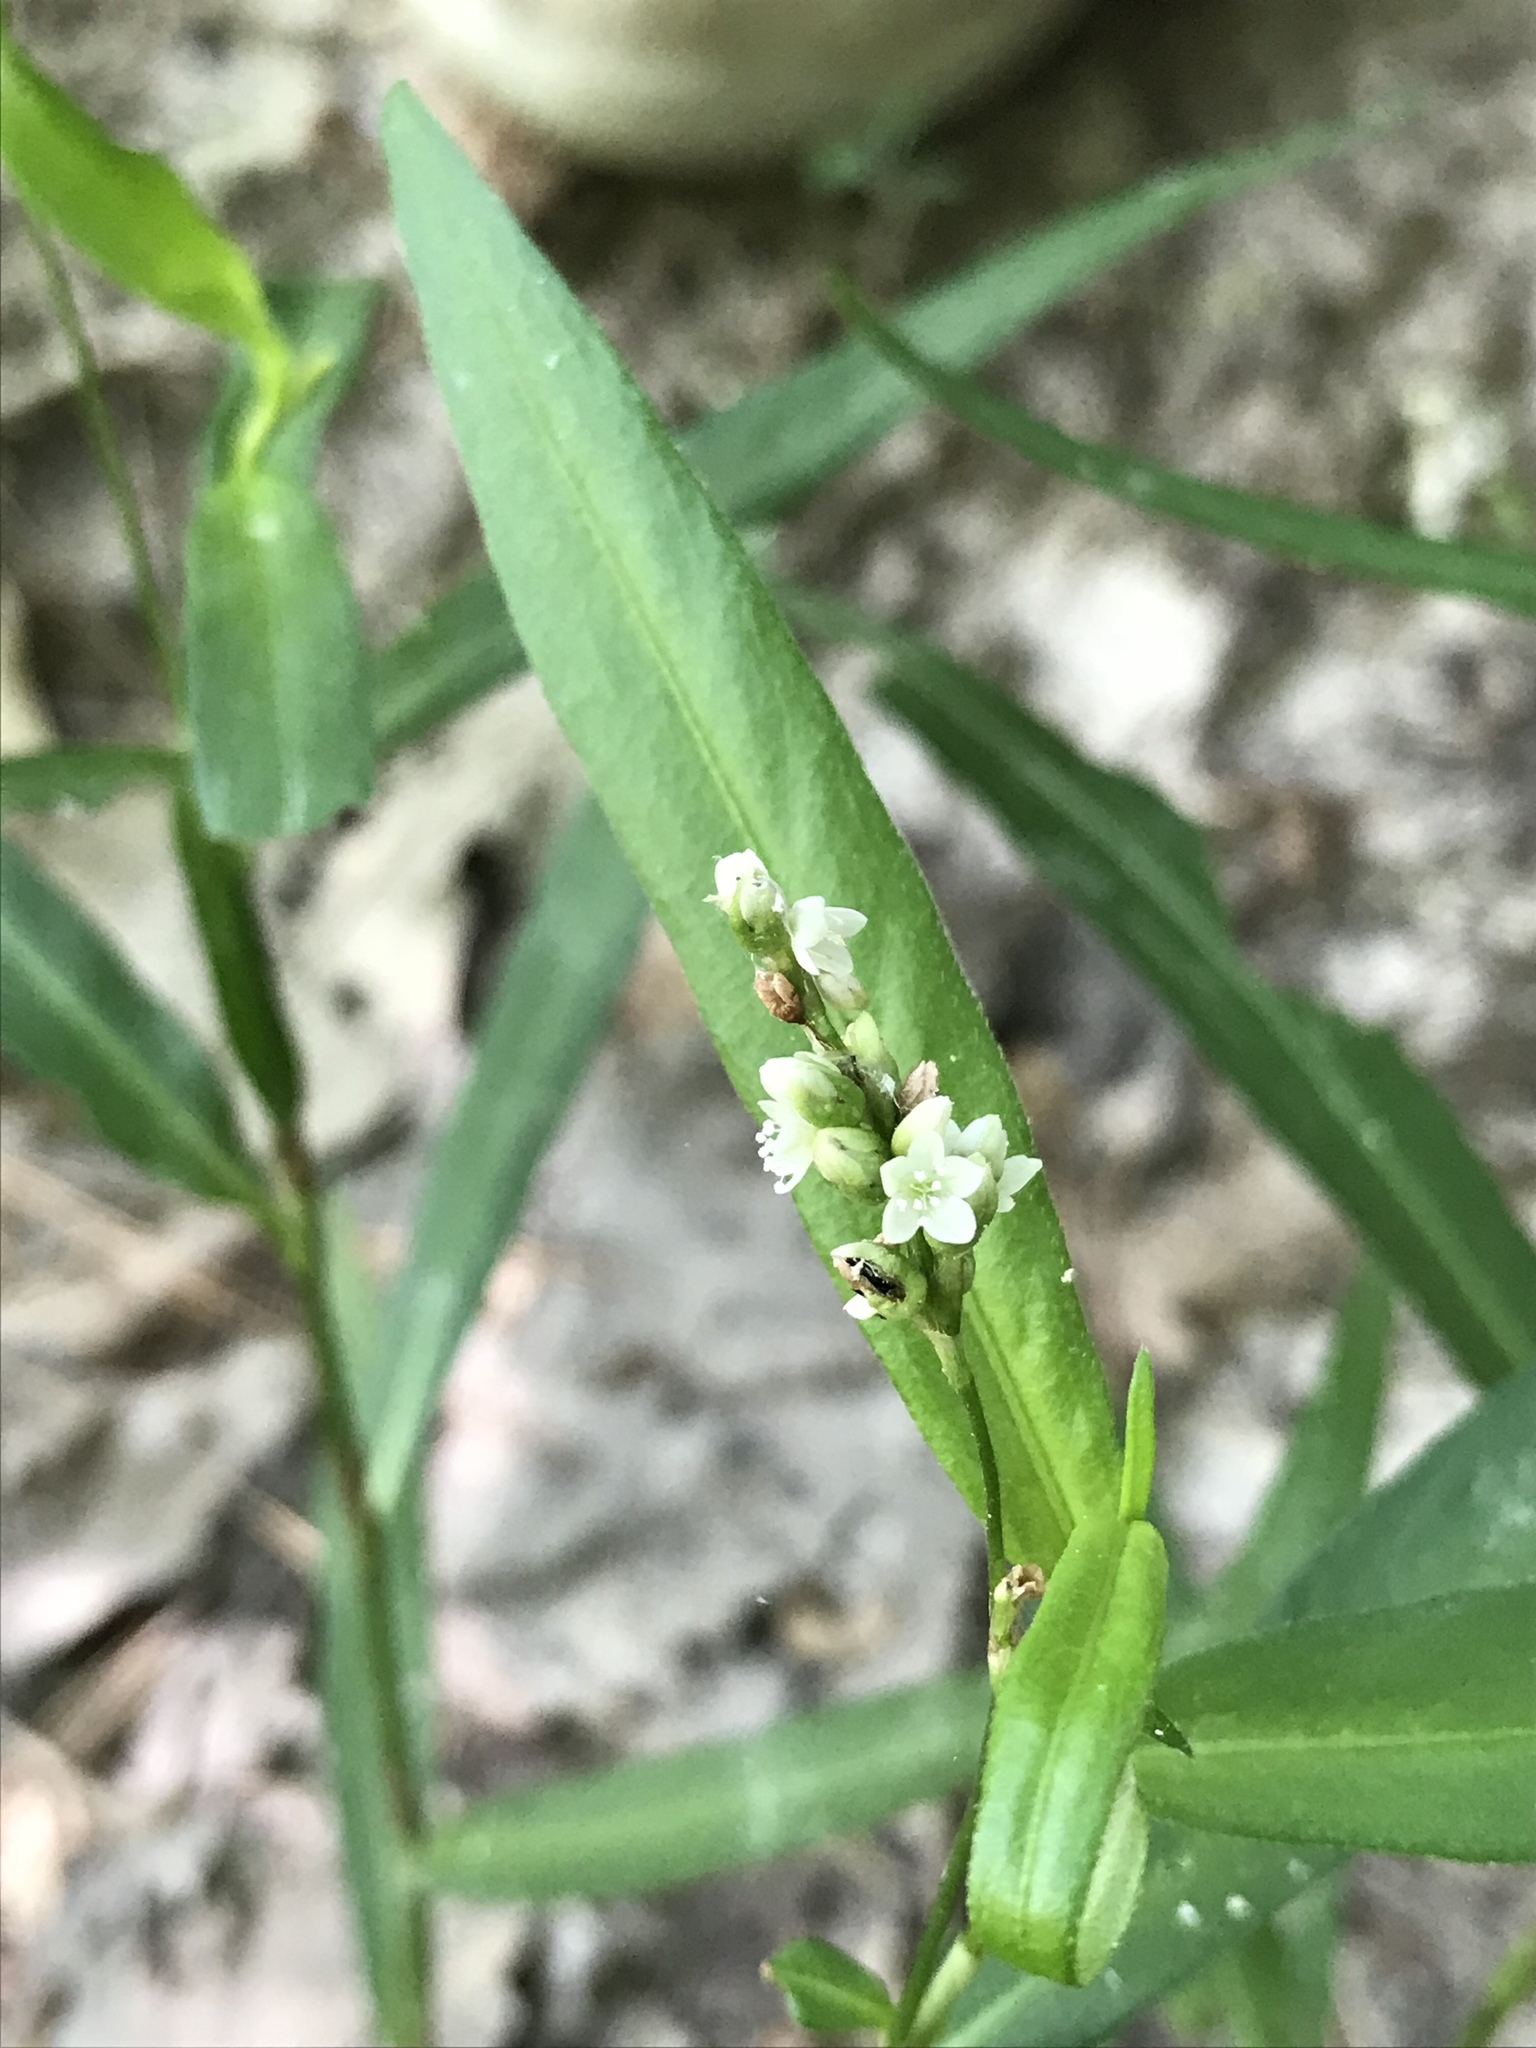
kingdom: Plantae
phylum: Tracheophyta
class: Magnoliopsida
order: Caryophyllales
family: Polygonaceae
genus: Persicaria
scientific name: Persicaria maculosa
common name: Redshank
